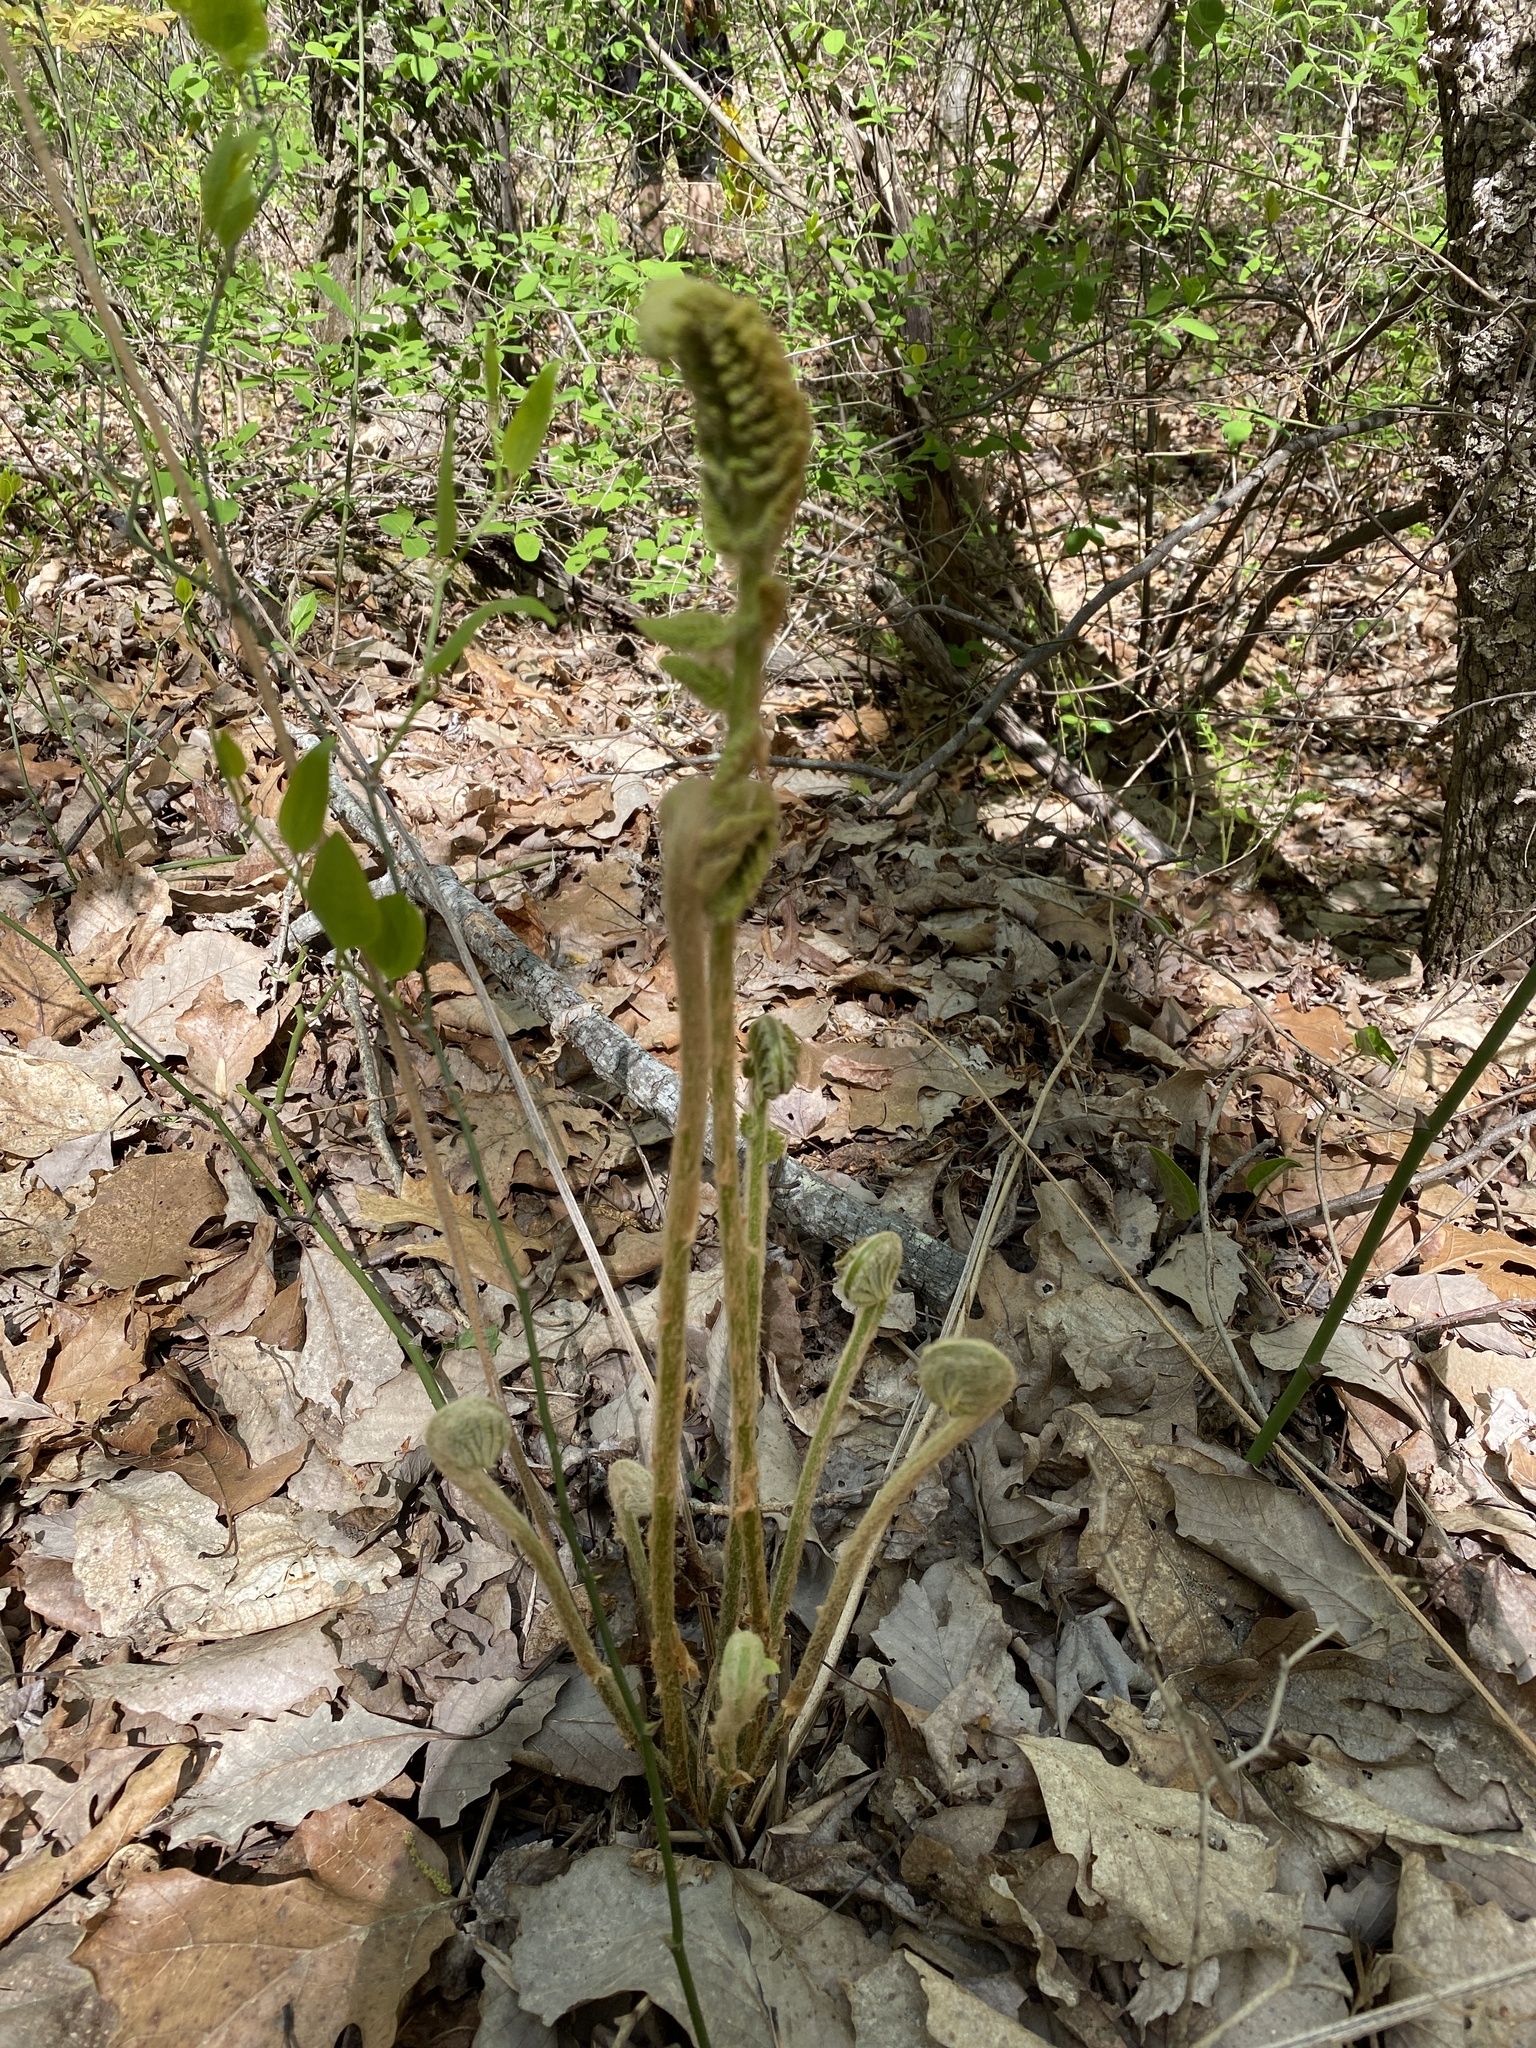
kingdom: Plantae
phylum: Tracheophyta
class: Polypodiopsida
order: Osmundales
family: Osmundaceae
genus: Osmundastrum
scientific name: Osmundastrum cinnamomeum
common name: Cinnamon fern
